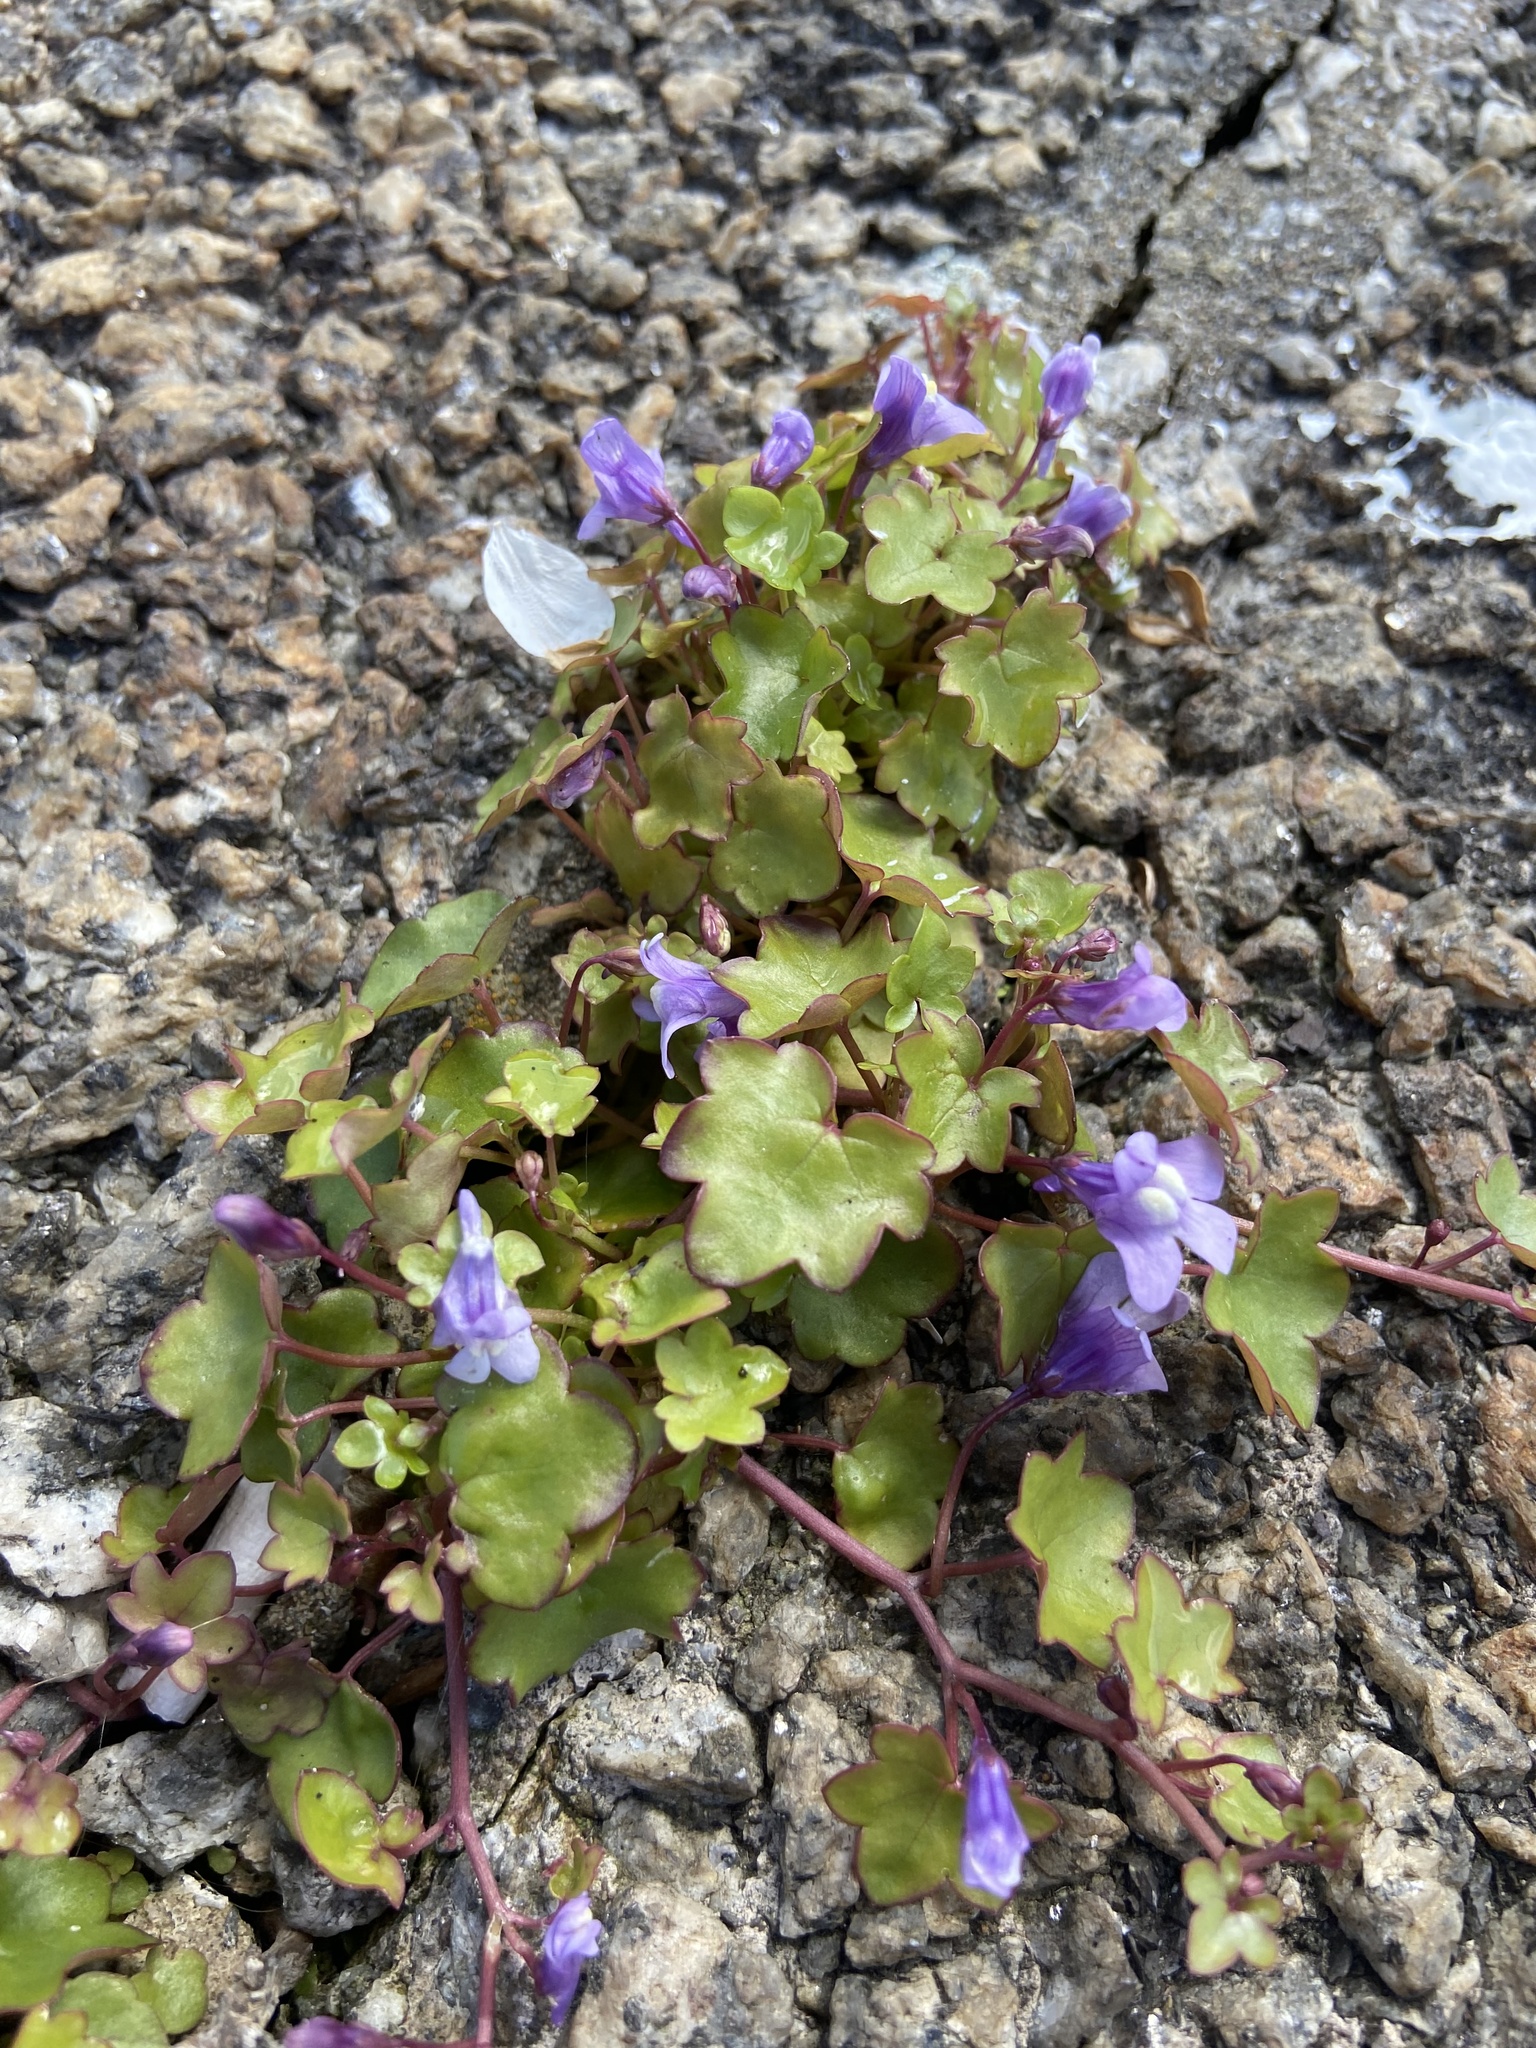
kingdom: Plantae
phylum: Tracheophyta
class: Magnoliopsida
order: Lamiales
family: Plantaginaceae
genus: Cymbalaria
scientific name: Cymbalaria muralis
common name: Ivy-leaved toadflax
